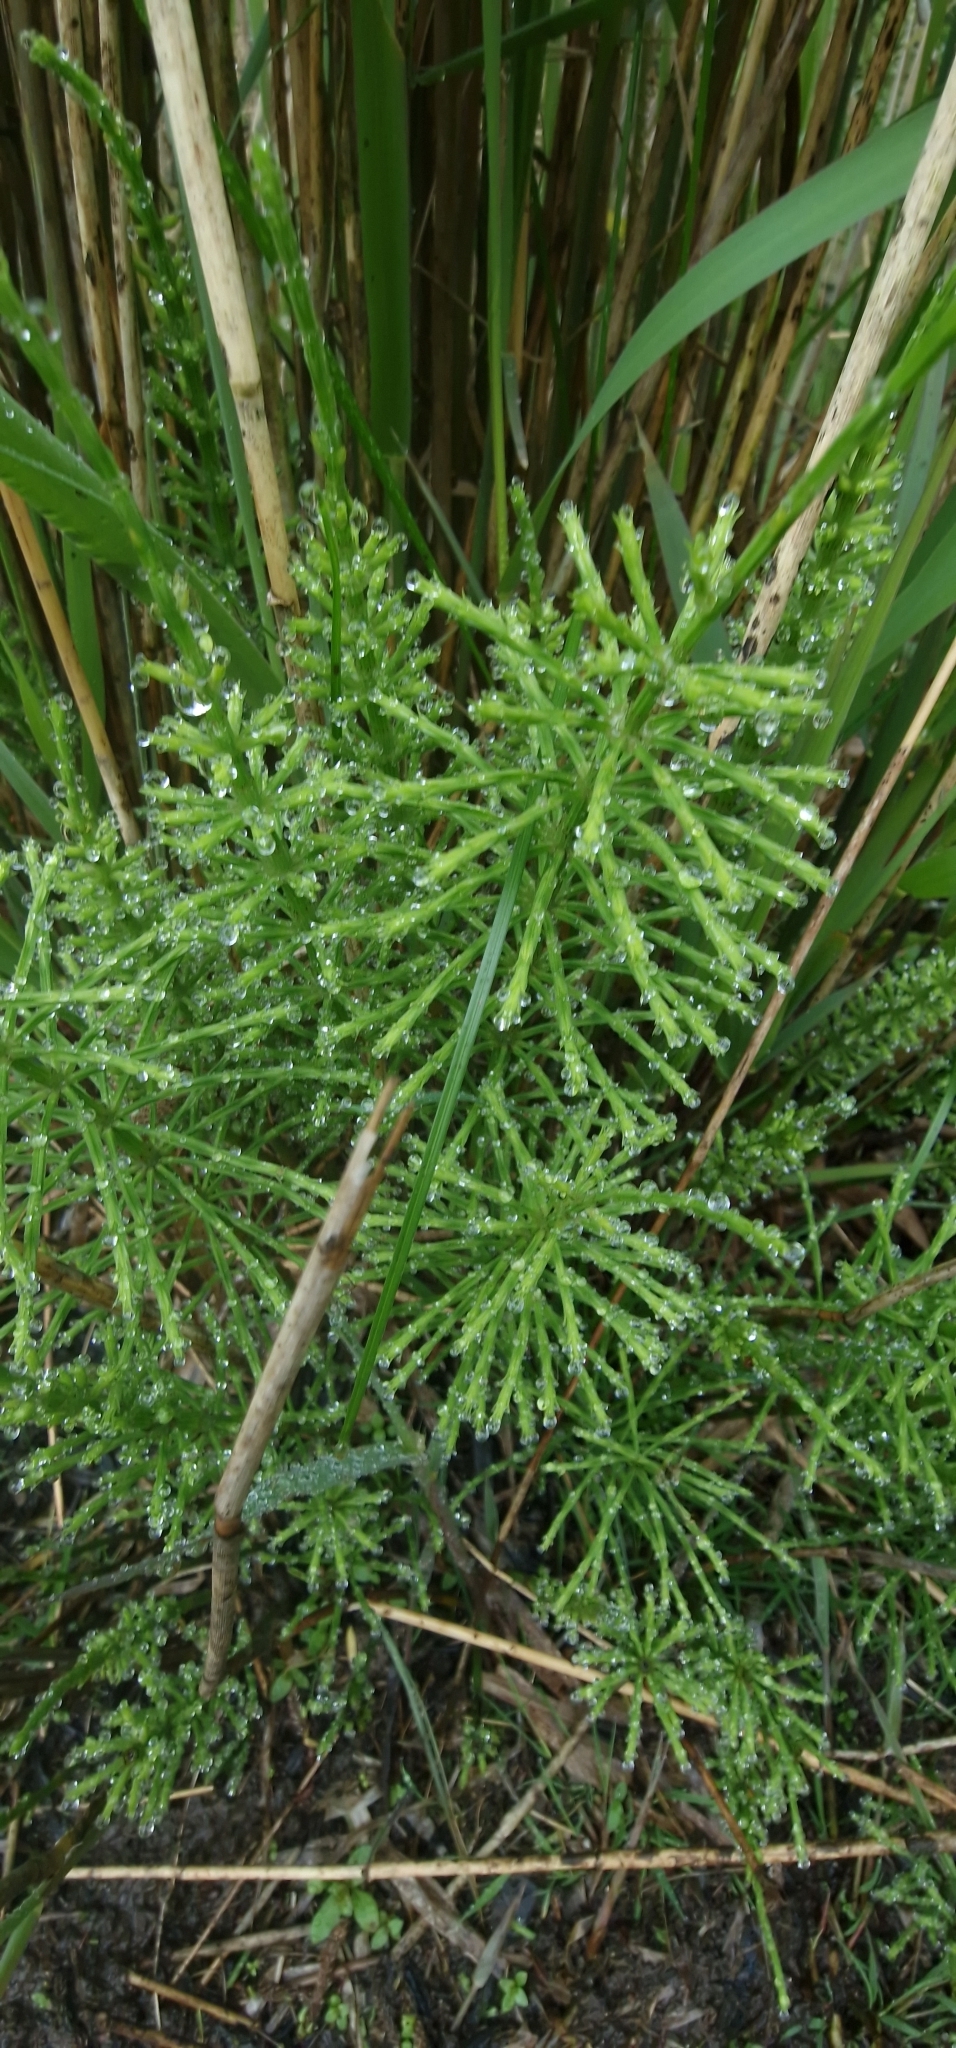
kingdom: Plantae
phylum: Tracheophyta
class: Polypodiopsida
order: Equisetales
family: Equisetaceae
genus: Equisetum
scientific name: Equisetum arvense
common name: Field horsetail
